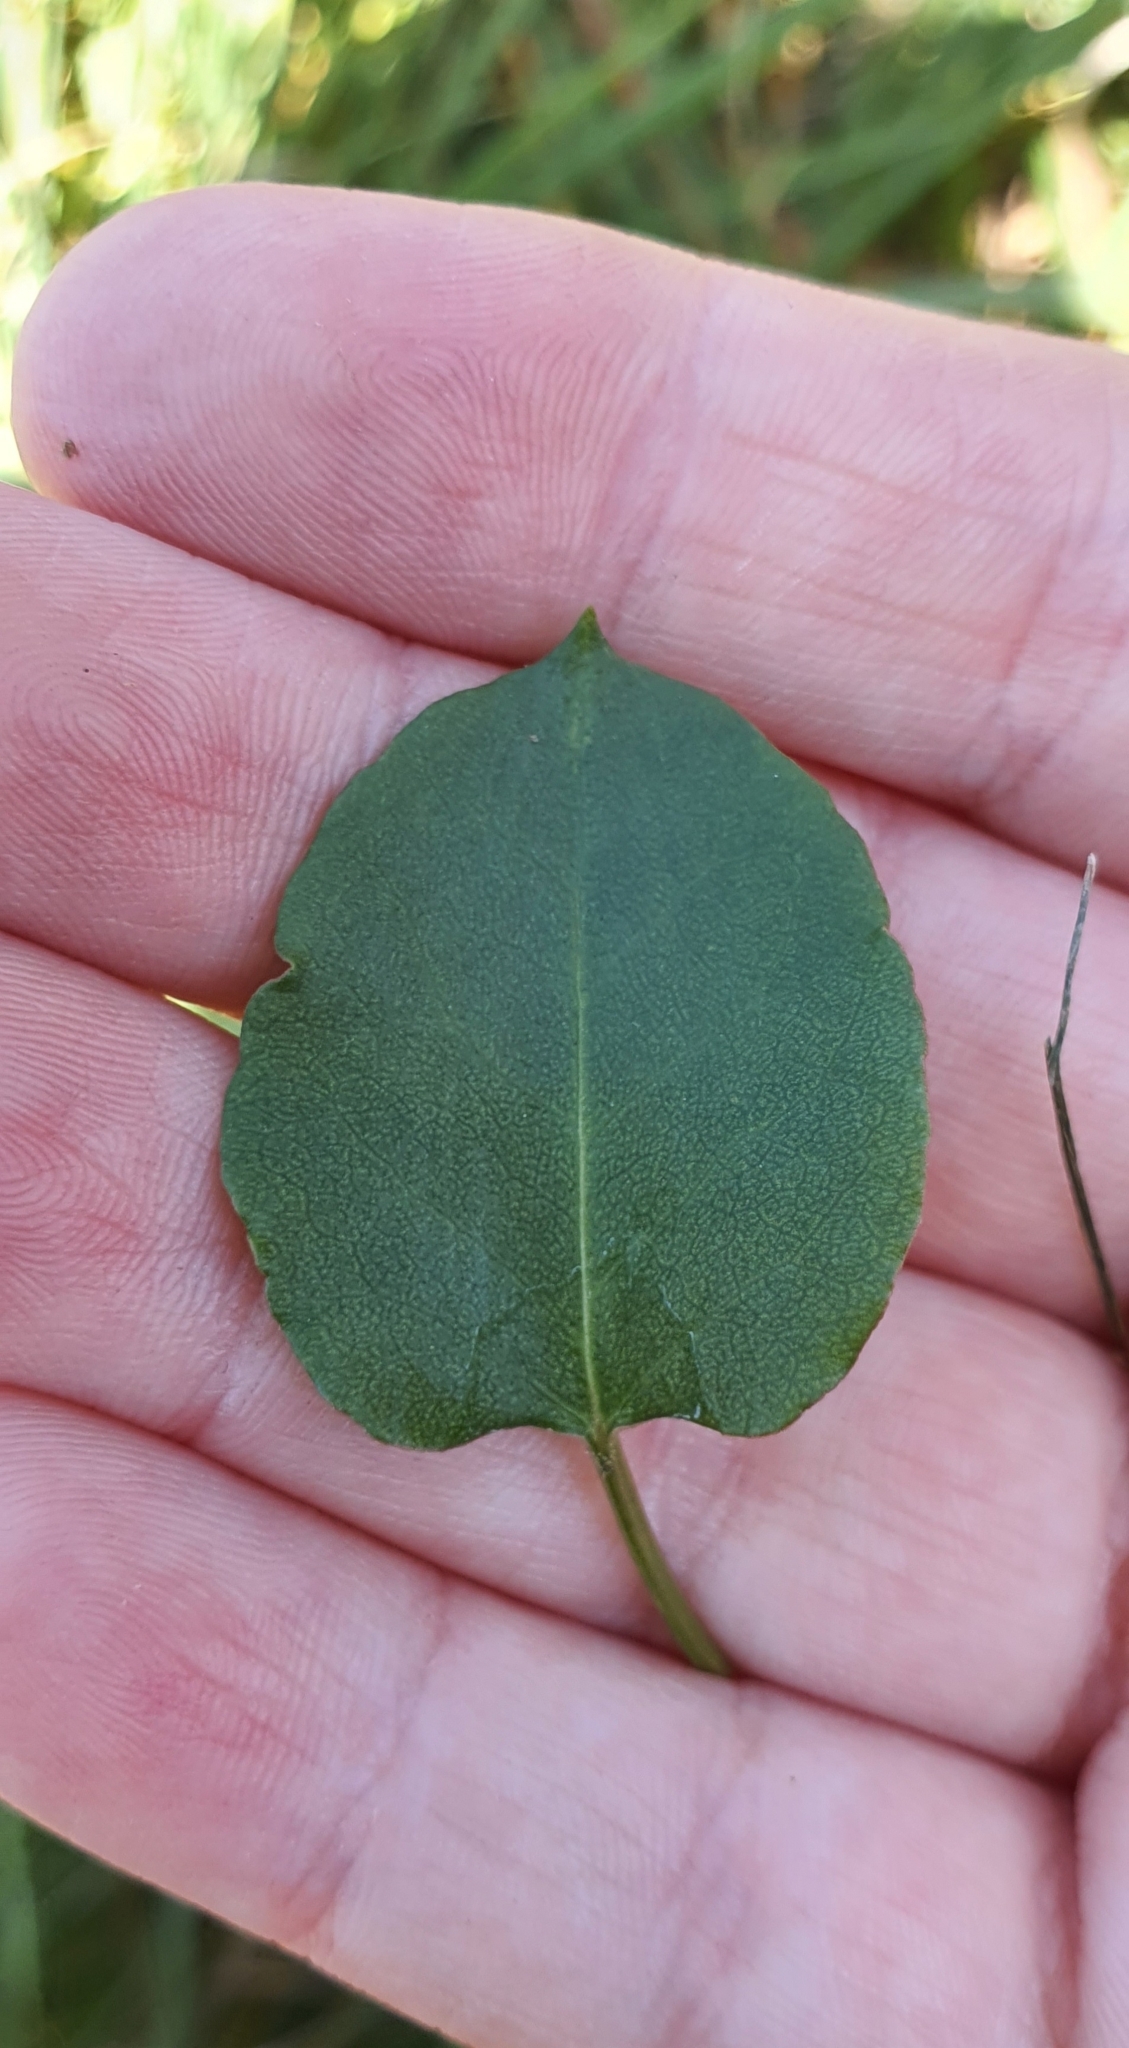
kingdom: Plantae
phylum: Tracheophyta
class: Magnoliopsida
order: Caryophyllales
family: Polygonaceae
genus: Muehlenbeckia
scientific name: Muehlenbeckia australis
